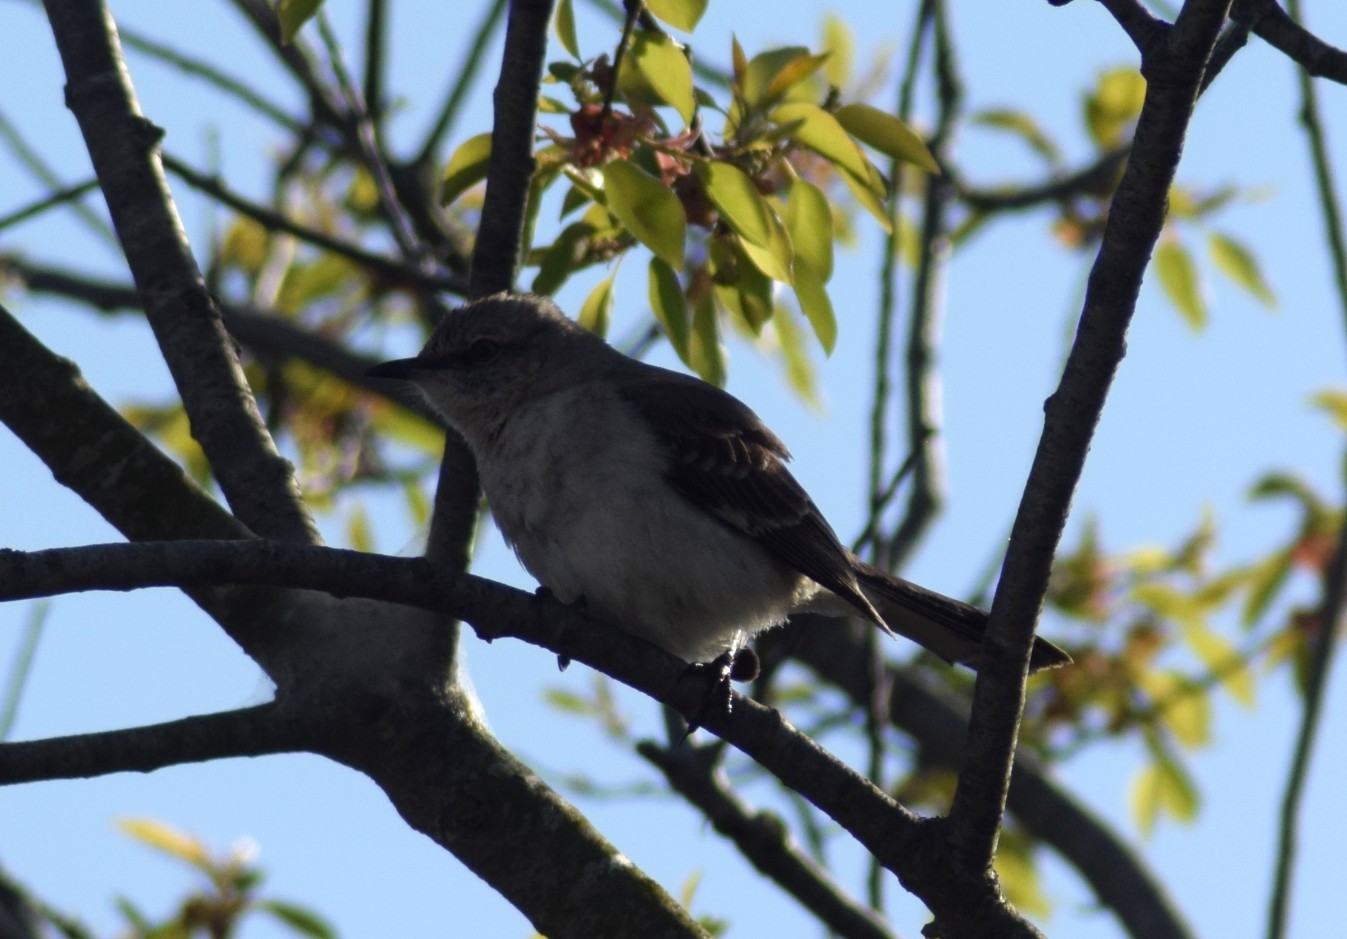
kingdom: Animalia
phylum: Chordata
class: Aves
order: Passeriformes
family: Mimidae
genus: Mimus
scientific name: Mimus polyglottos
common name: Northern mockingbird
